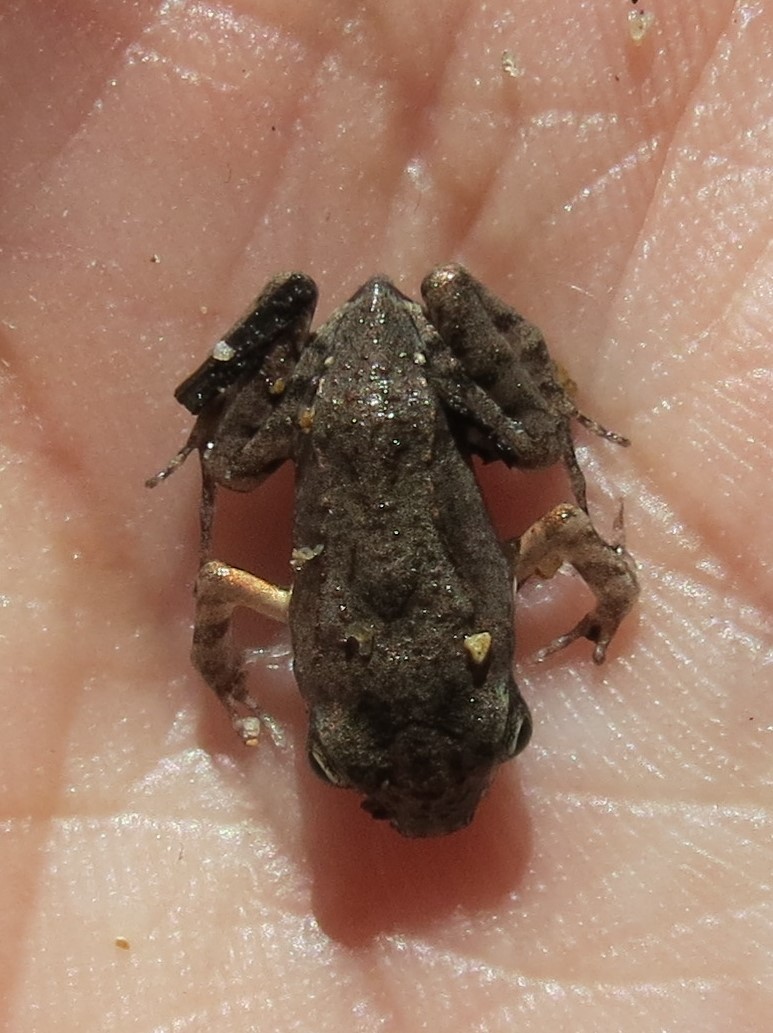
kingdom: Animalia
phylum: Chordata
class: Amphibia
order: Anura
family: Leptodactylidae
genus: Leptodactylus
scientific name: Leptodactylus albilabris
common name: Caribbean white-lipped frog
